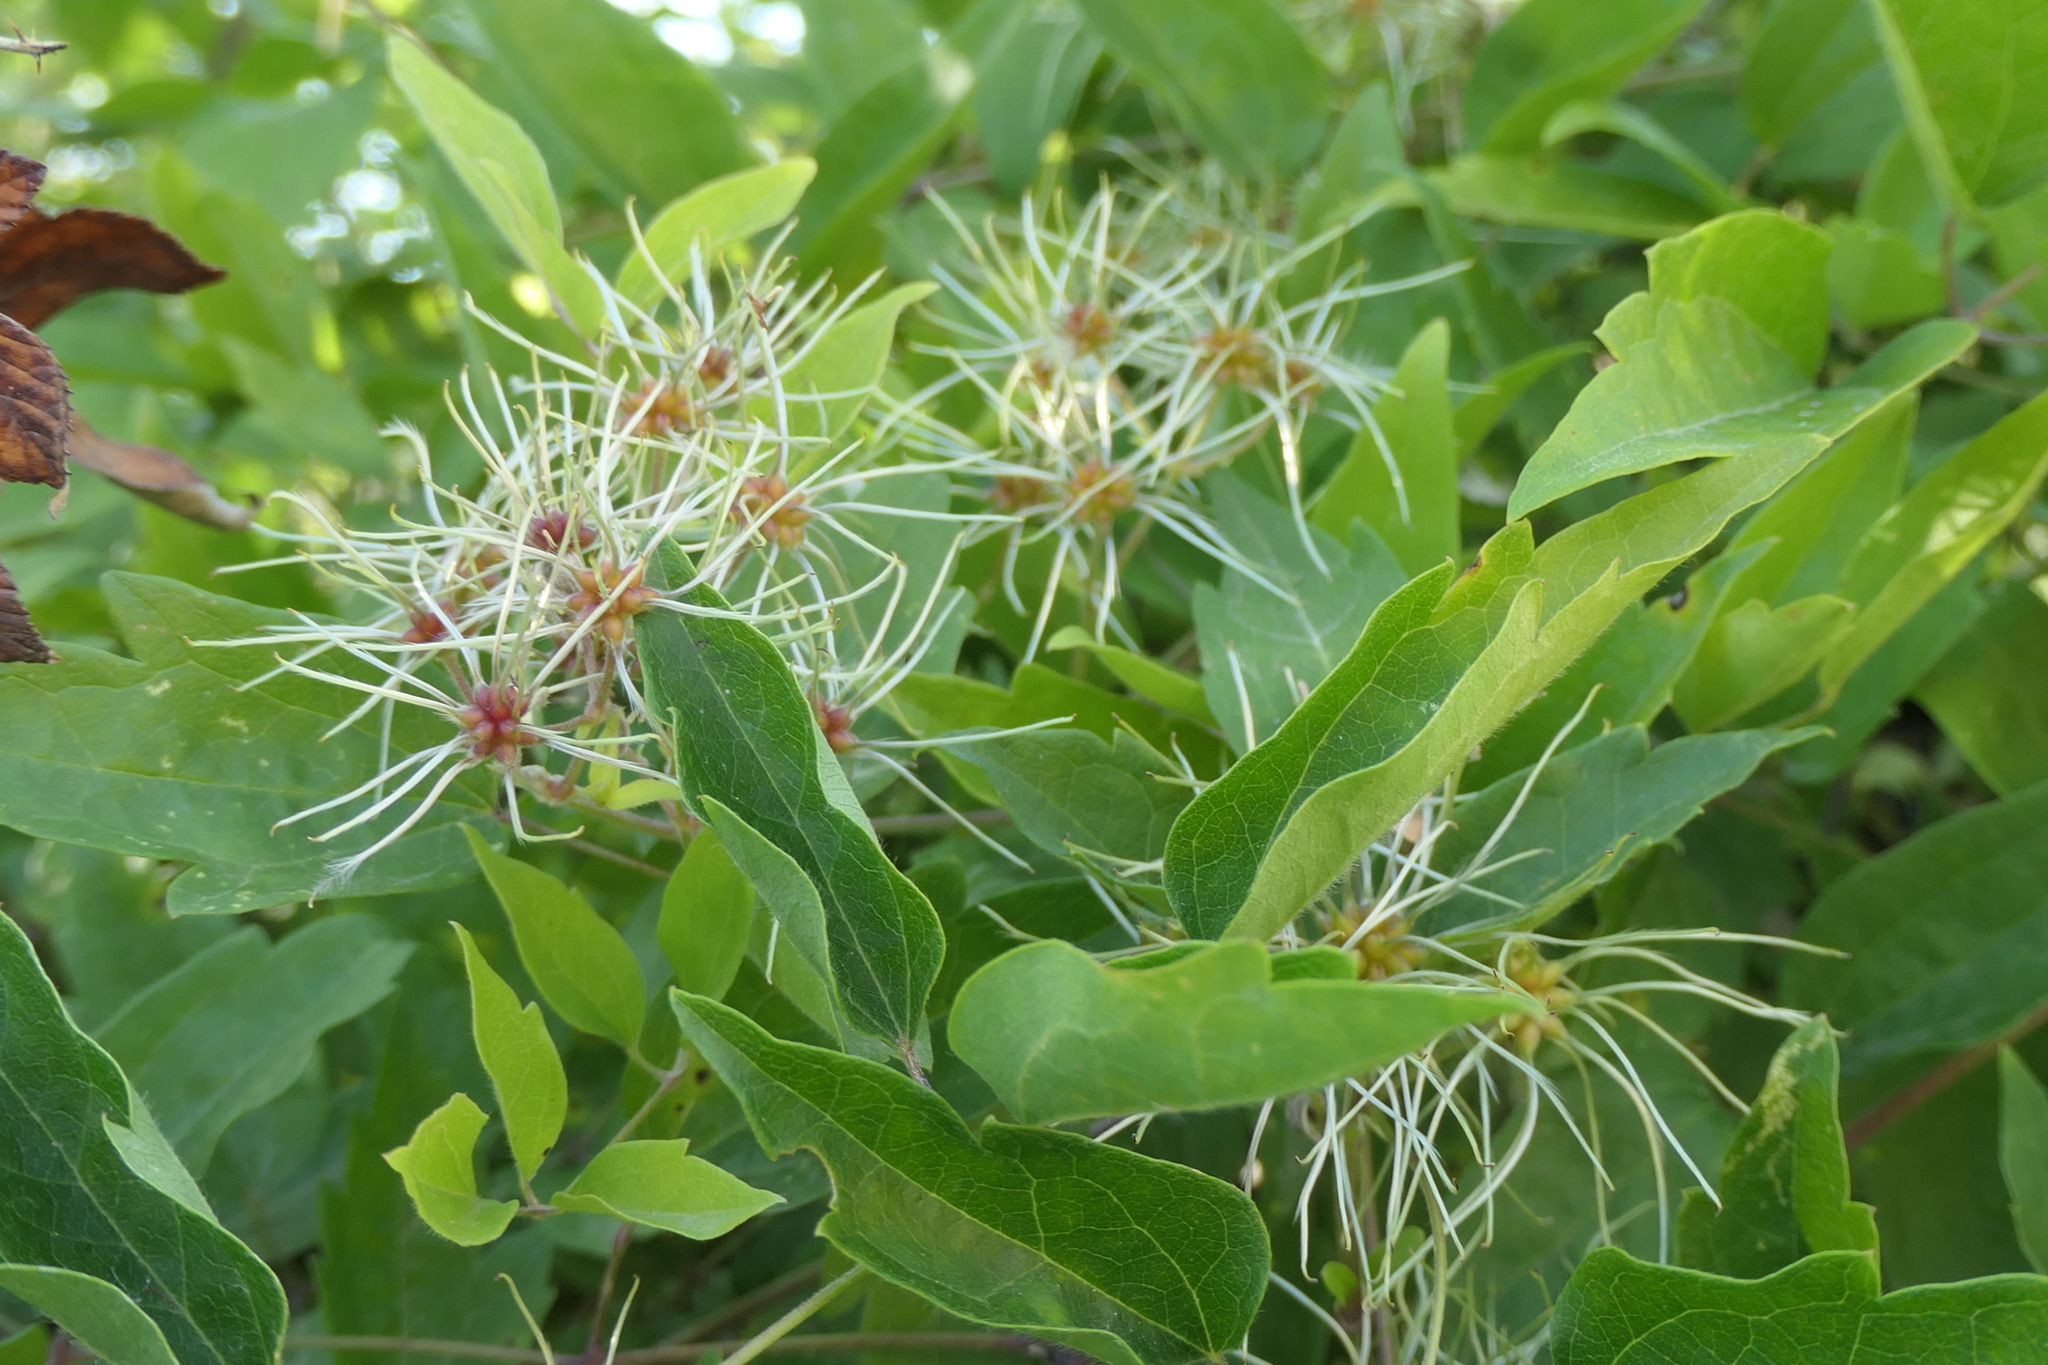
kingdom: Plantae
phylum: Tracheophyta
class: Magnoliopsida
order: Ranunculales
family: Ranunculaceae
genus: Clematis
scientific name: Clematis vitalba
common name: Evergreen clematis
